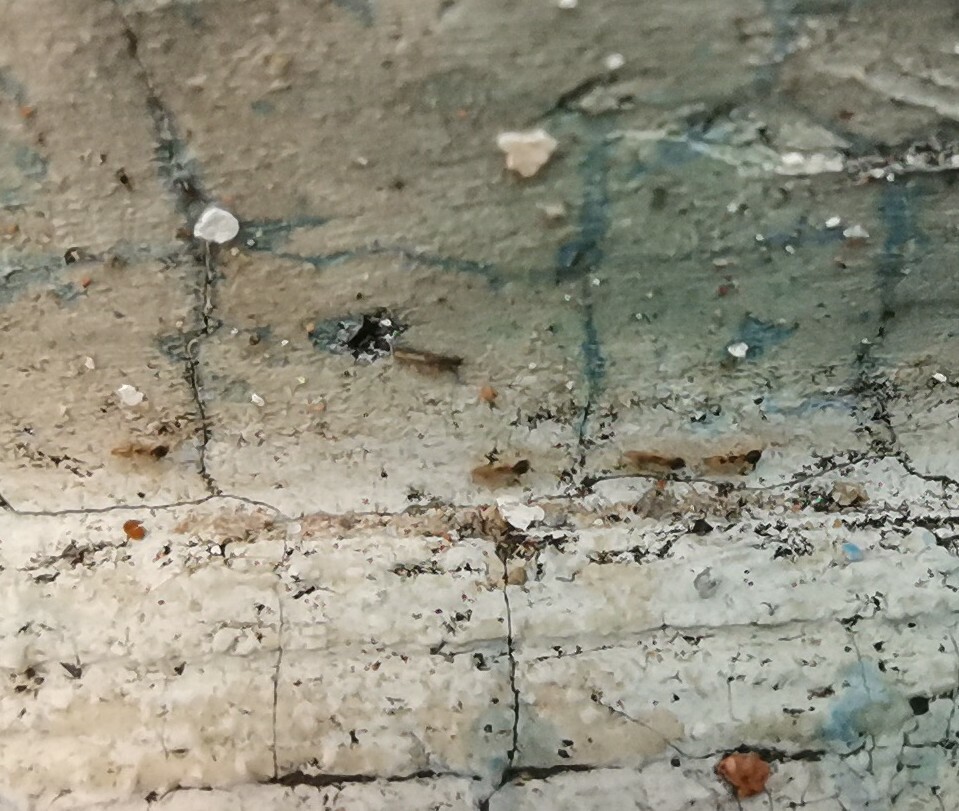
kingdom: Animalia
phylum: Arthropoda
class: Insecta
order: Hymenoptera
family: Formicidae
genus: Tapinoma
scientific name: Tapinoma melanocephalum
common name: Ghost ant
